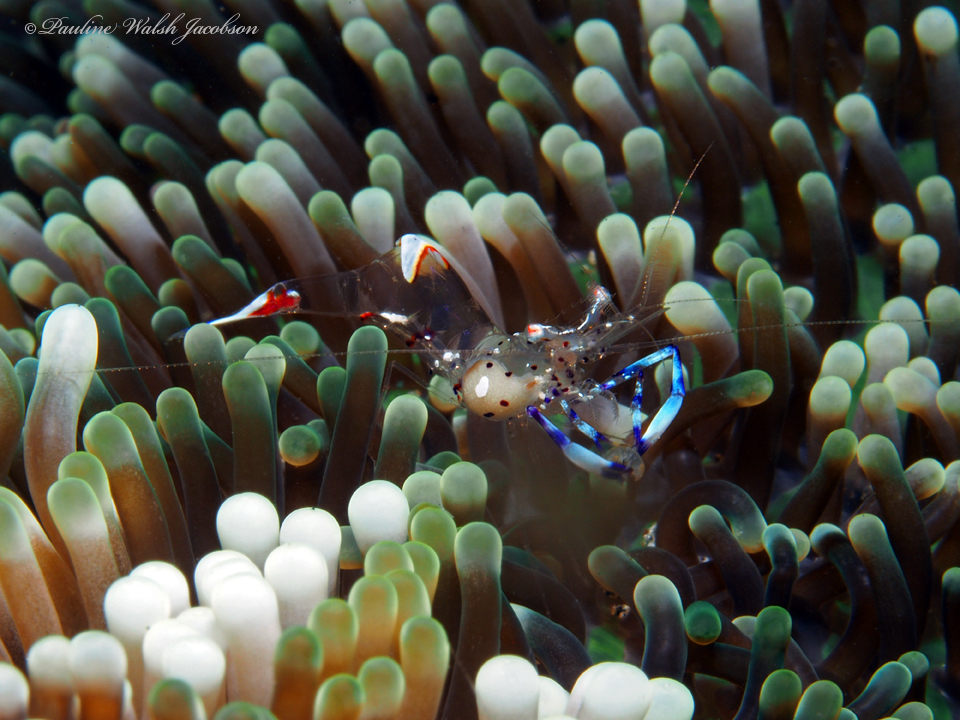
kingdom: Animalia
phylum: Arthropoda
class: Malacostraca
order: Decapoda
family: Palaemonidae
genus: Ancylomenes
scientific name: Ancylomenes holthuisi
